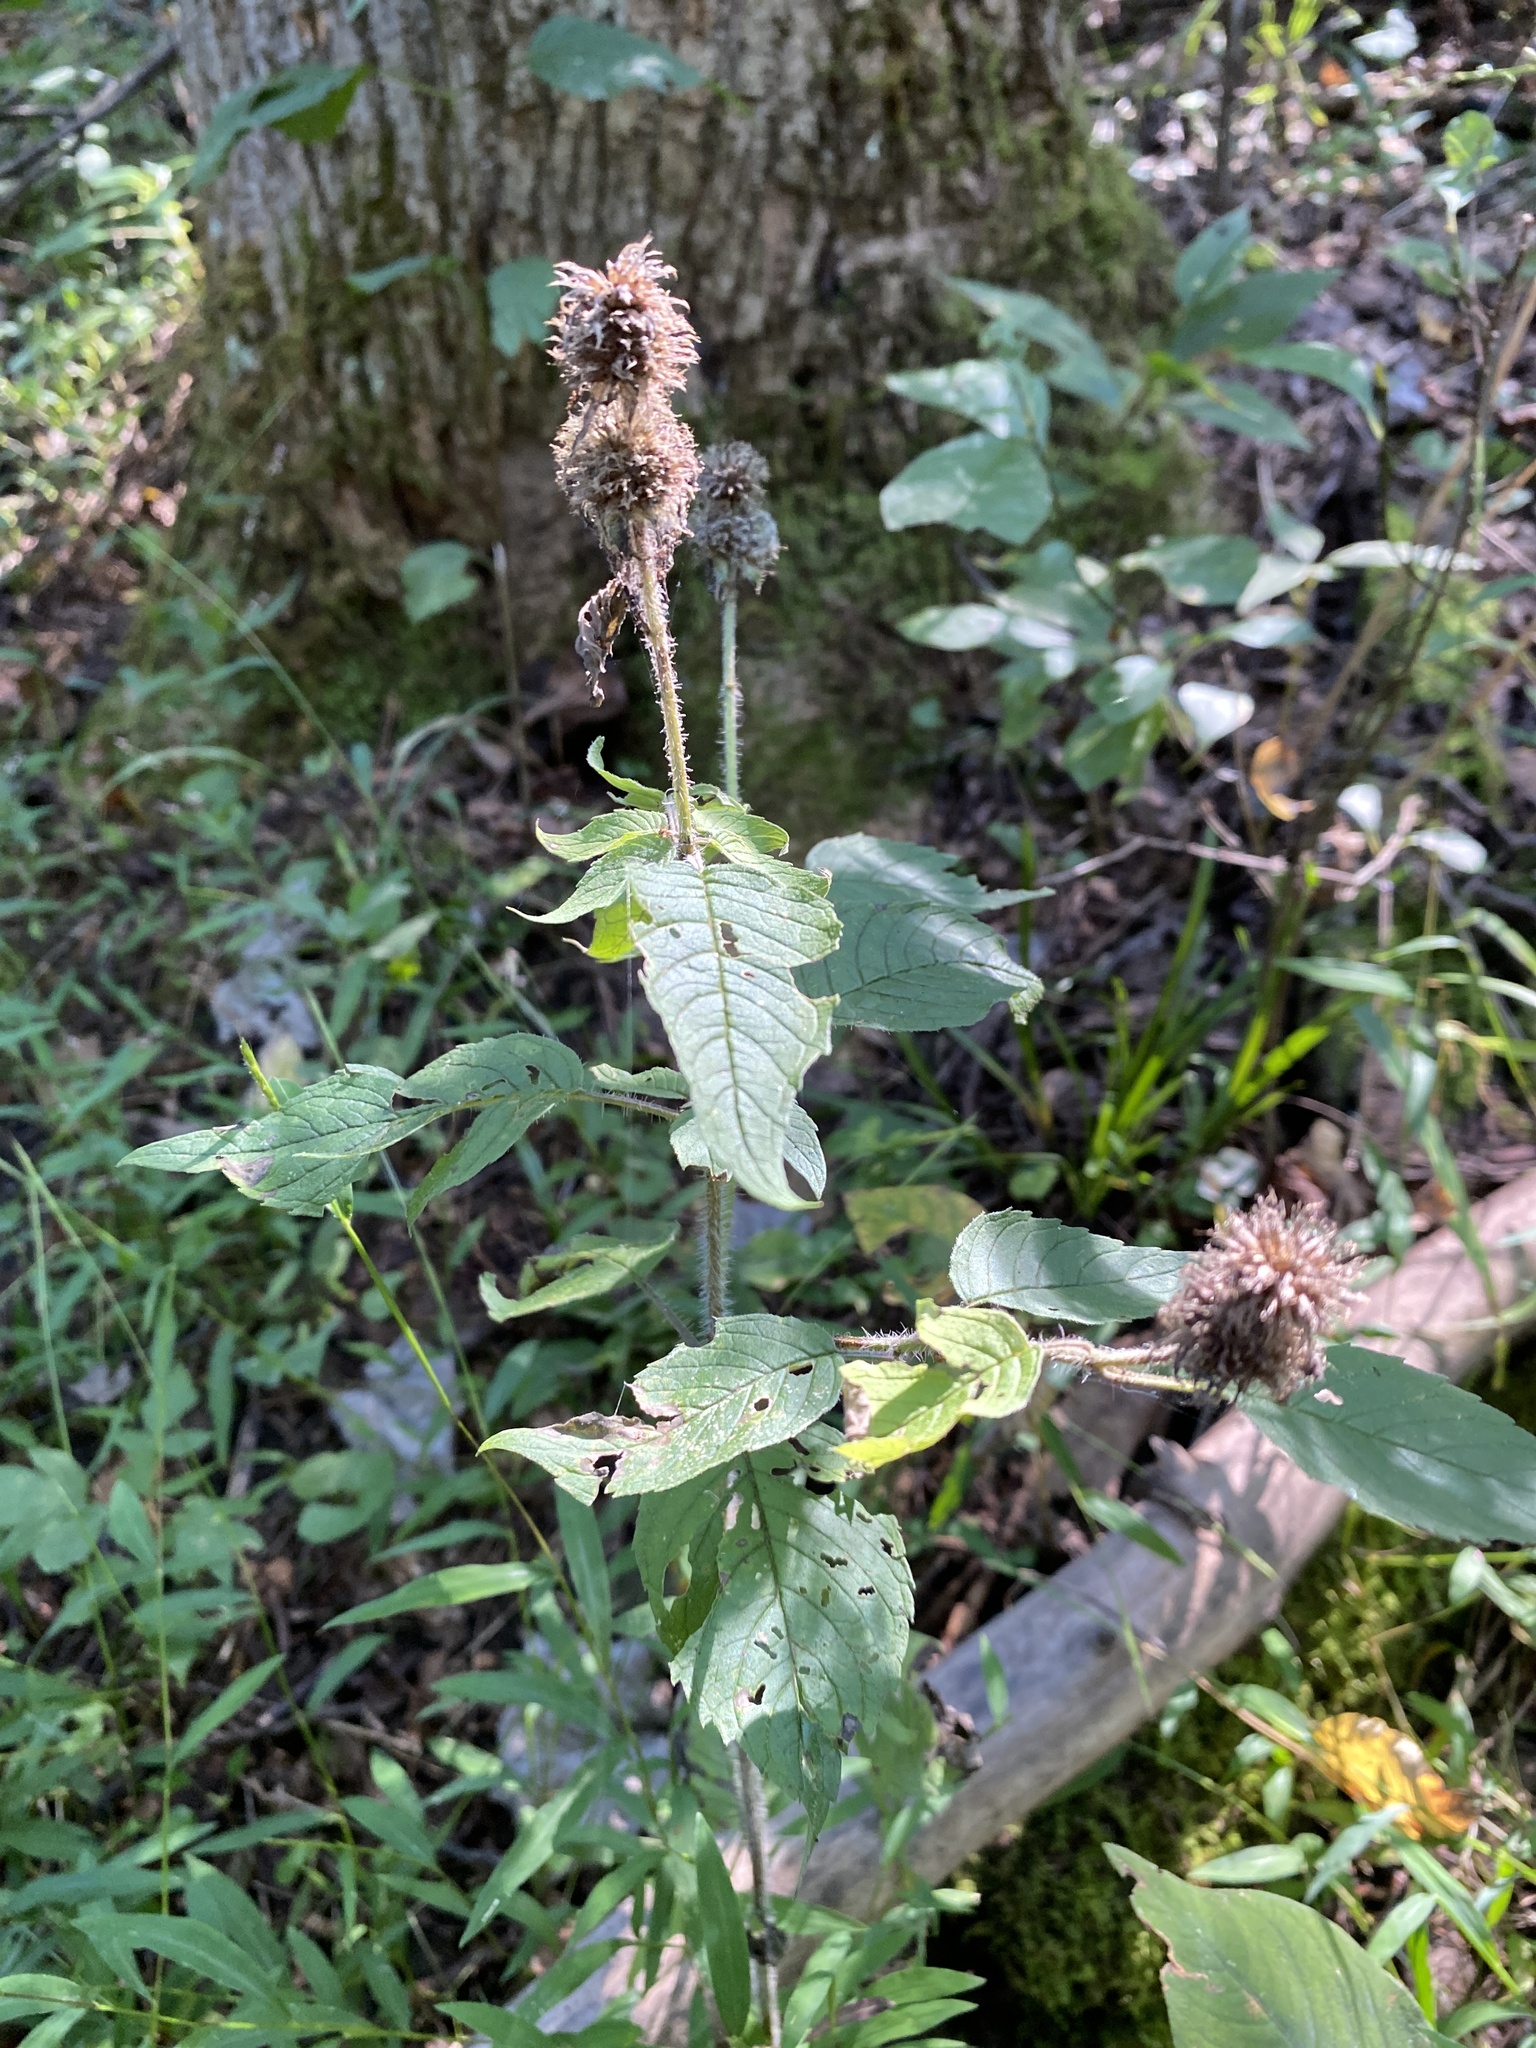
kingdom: Plantae
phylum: Tracheophyta
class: Magnoliopsida
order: Lamiales
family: Lamiaceae
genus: Blephilia
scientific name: Blephilia hirsuta
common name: Hairy blephilia
